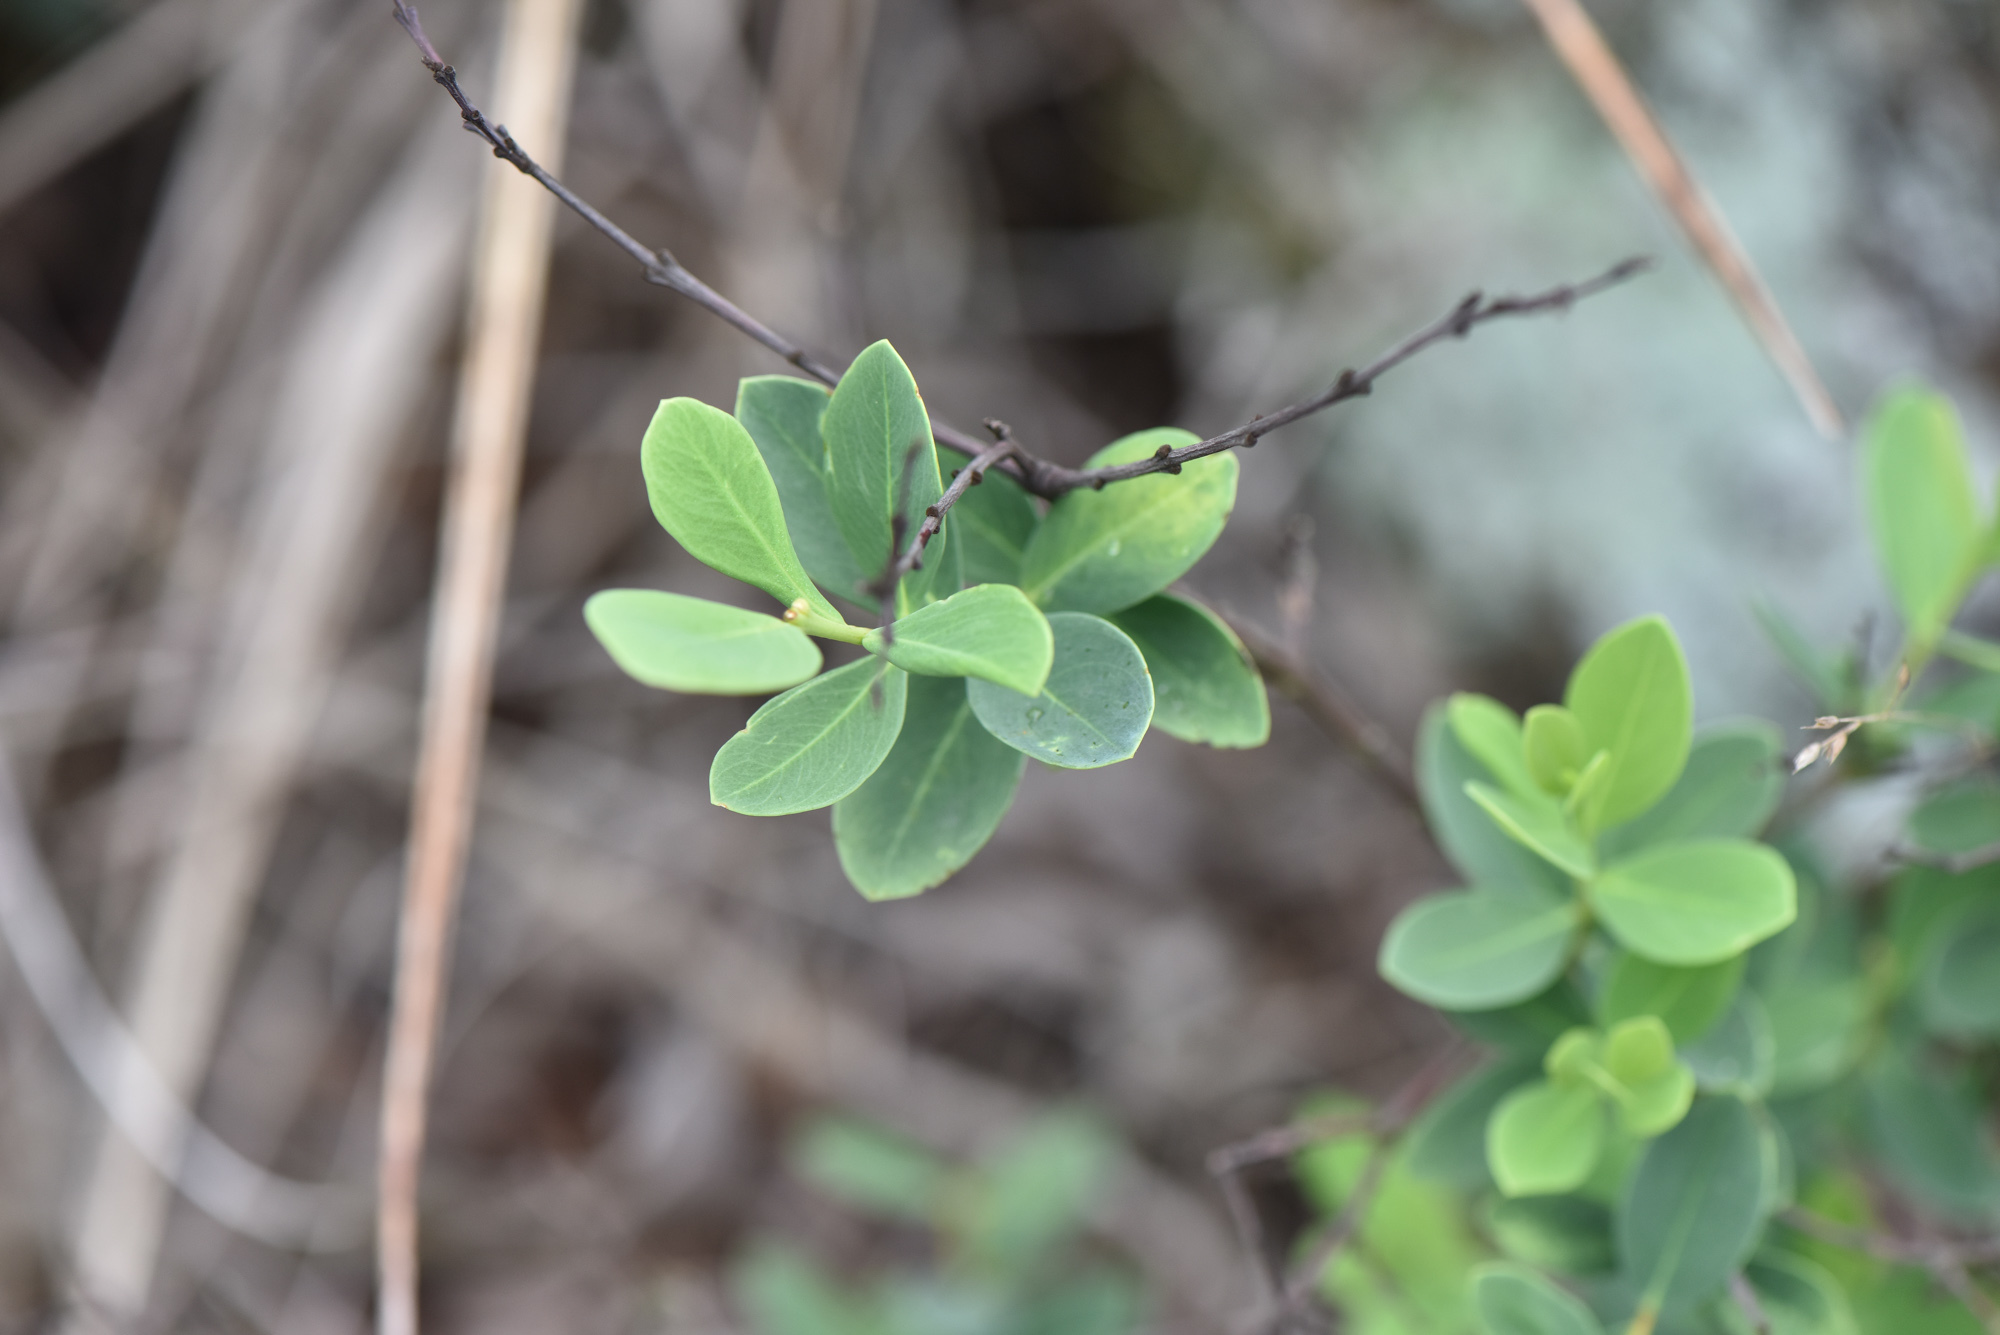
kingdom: Plantae
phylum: Tracheophyta
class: Magnoliopsida
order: Malvales
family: Thymelaeaceae
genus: Wikstroemia
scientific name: Wikstroemia indica
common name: Tiebush
